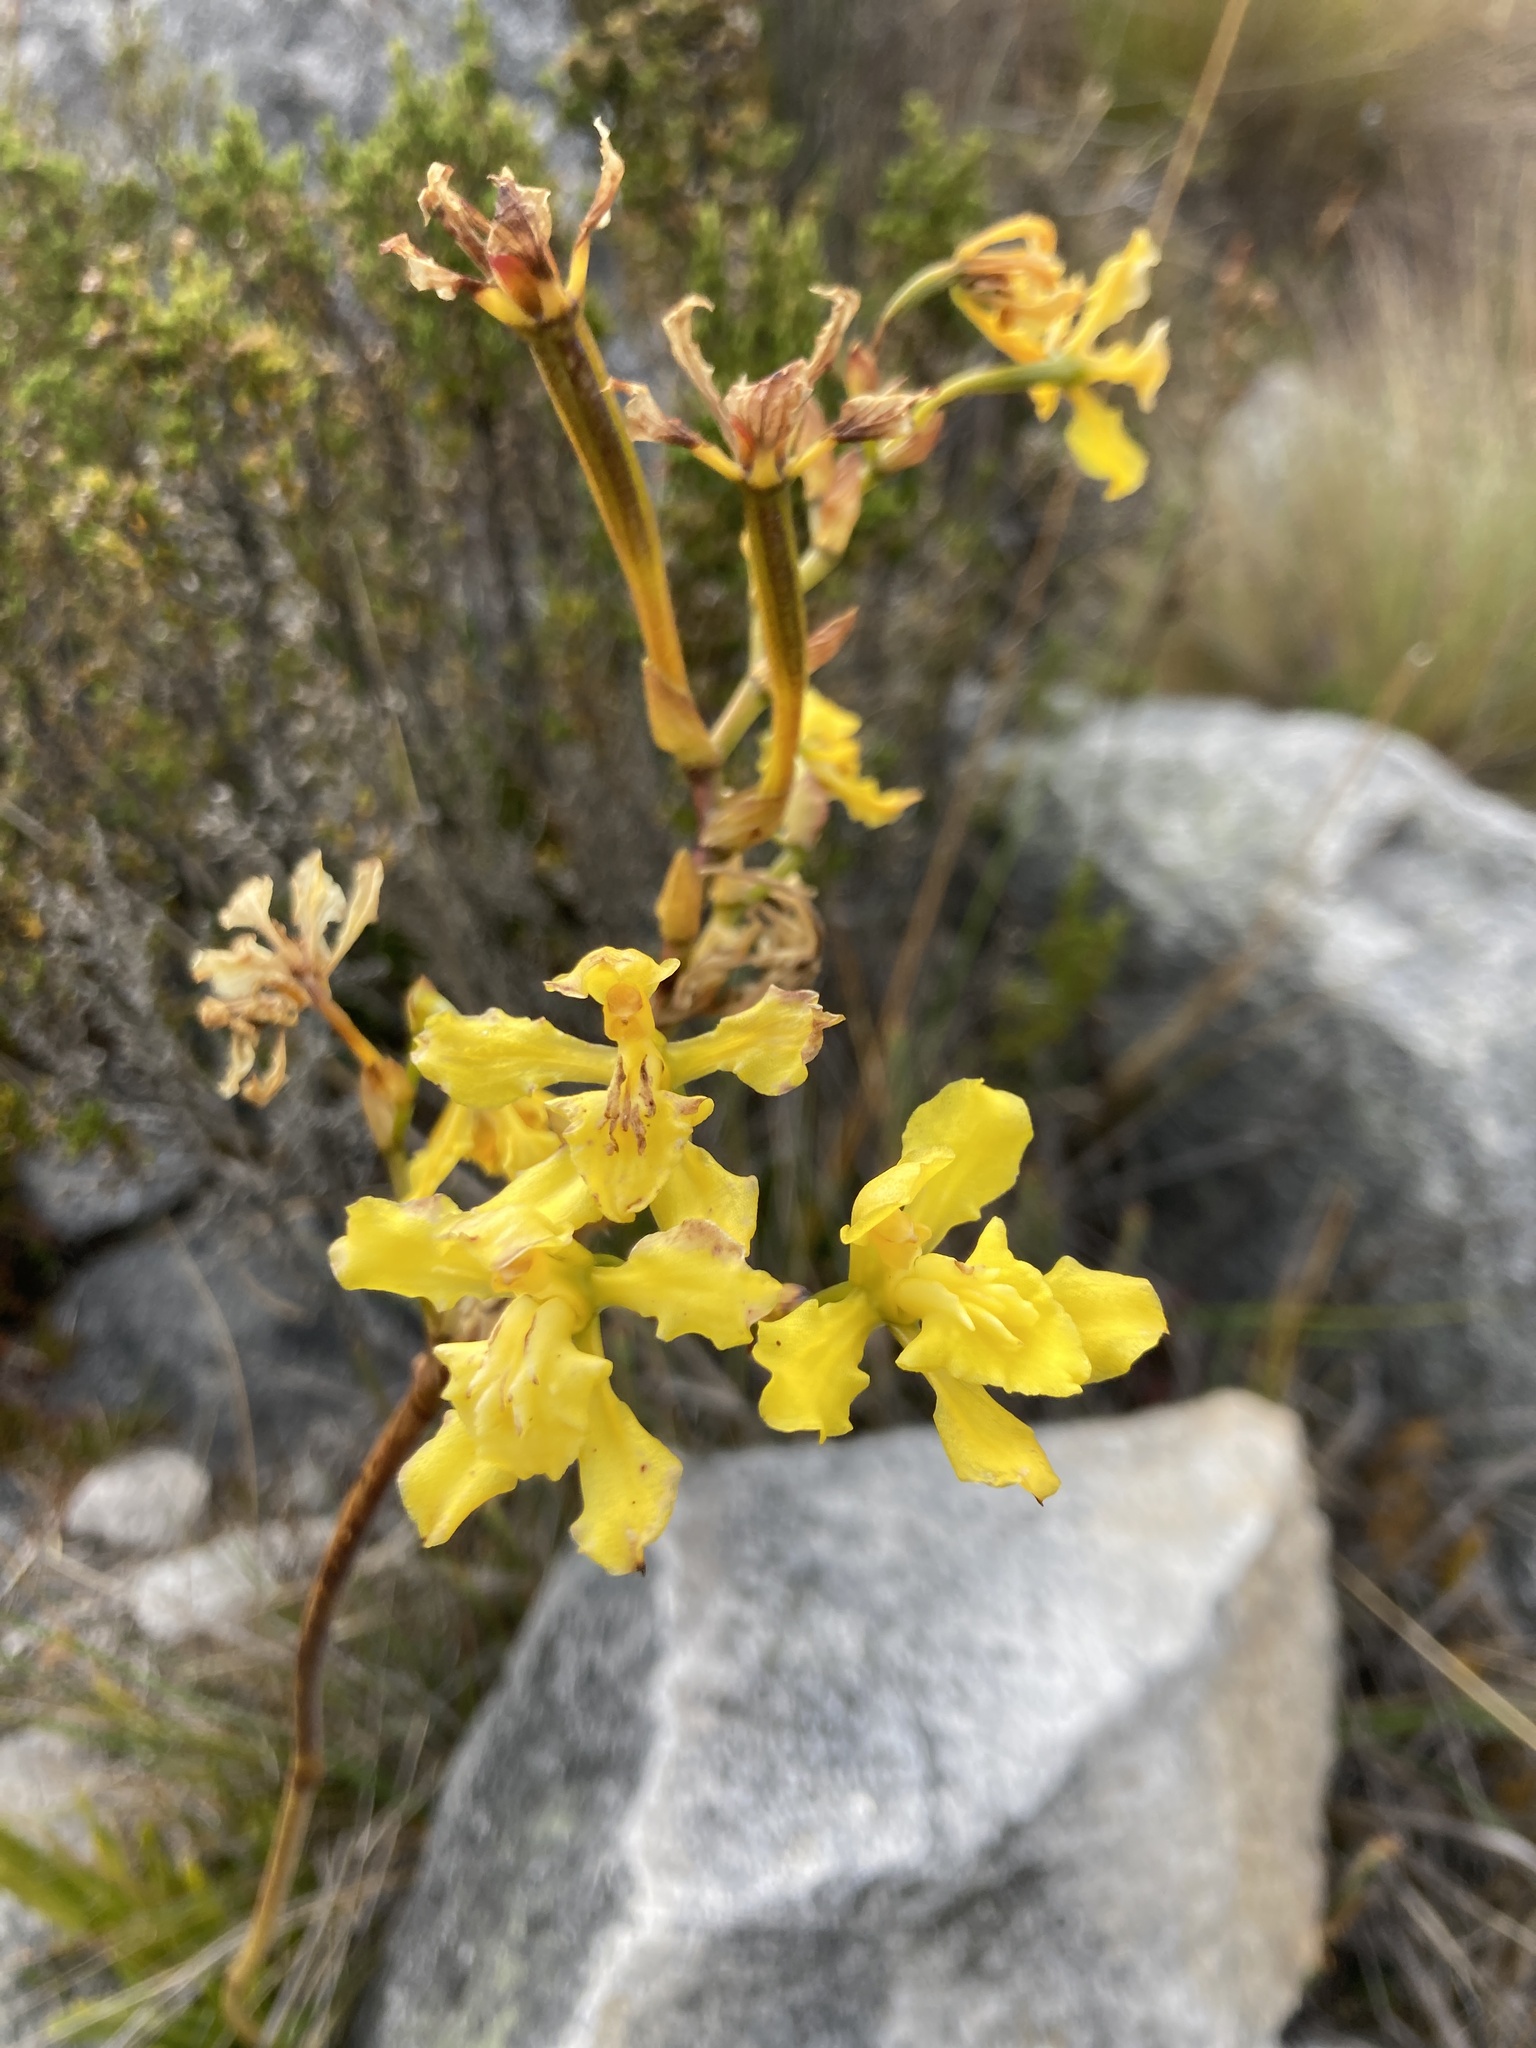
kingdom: Plantae
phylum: Tracheophyta
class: Liliopsida
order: Asparagales
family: Orchidaceae
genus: Cyrtochilum
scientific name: Cyrtochilum revolutum
